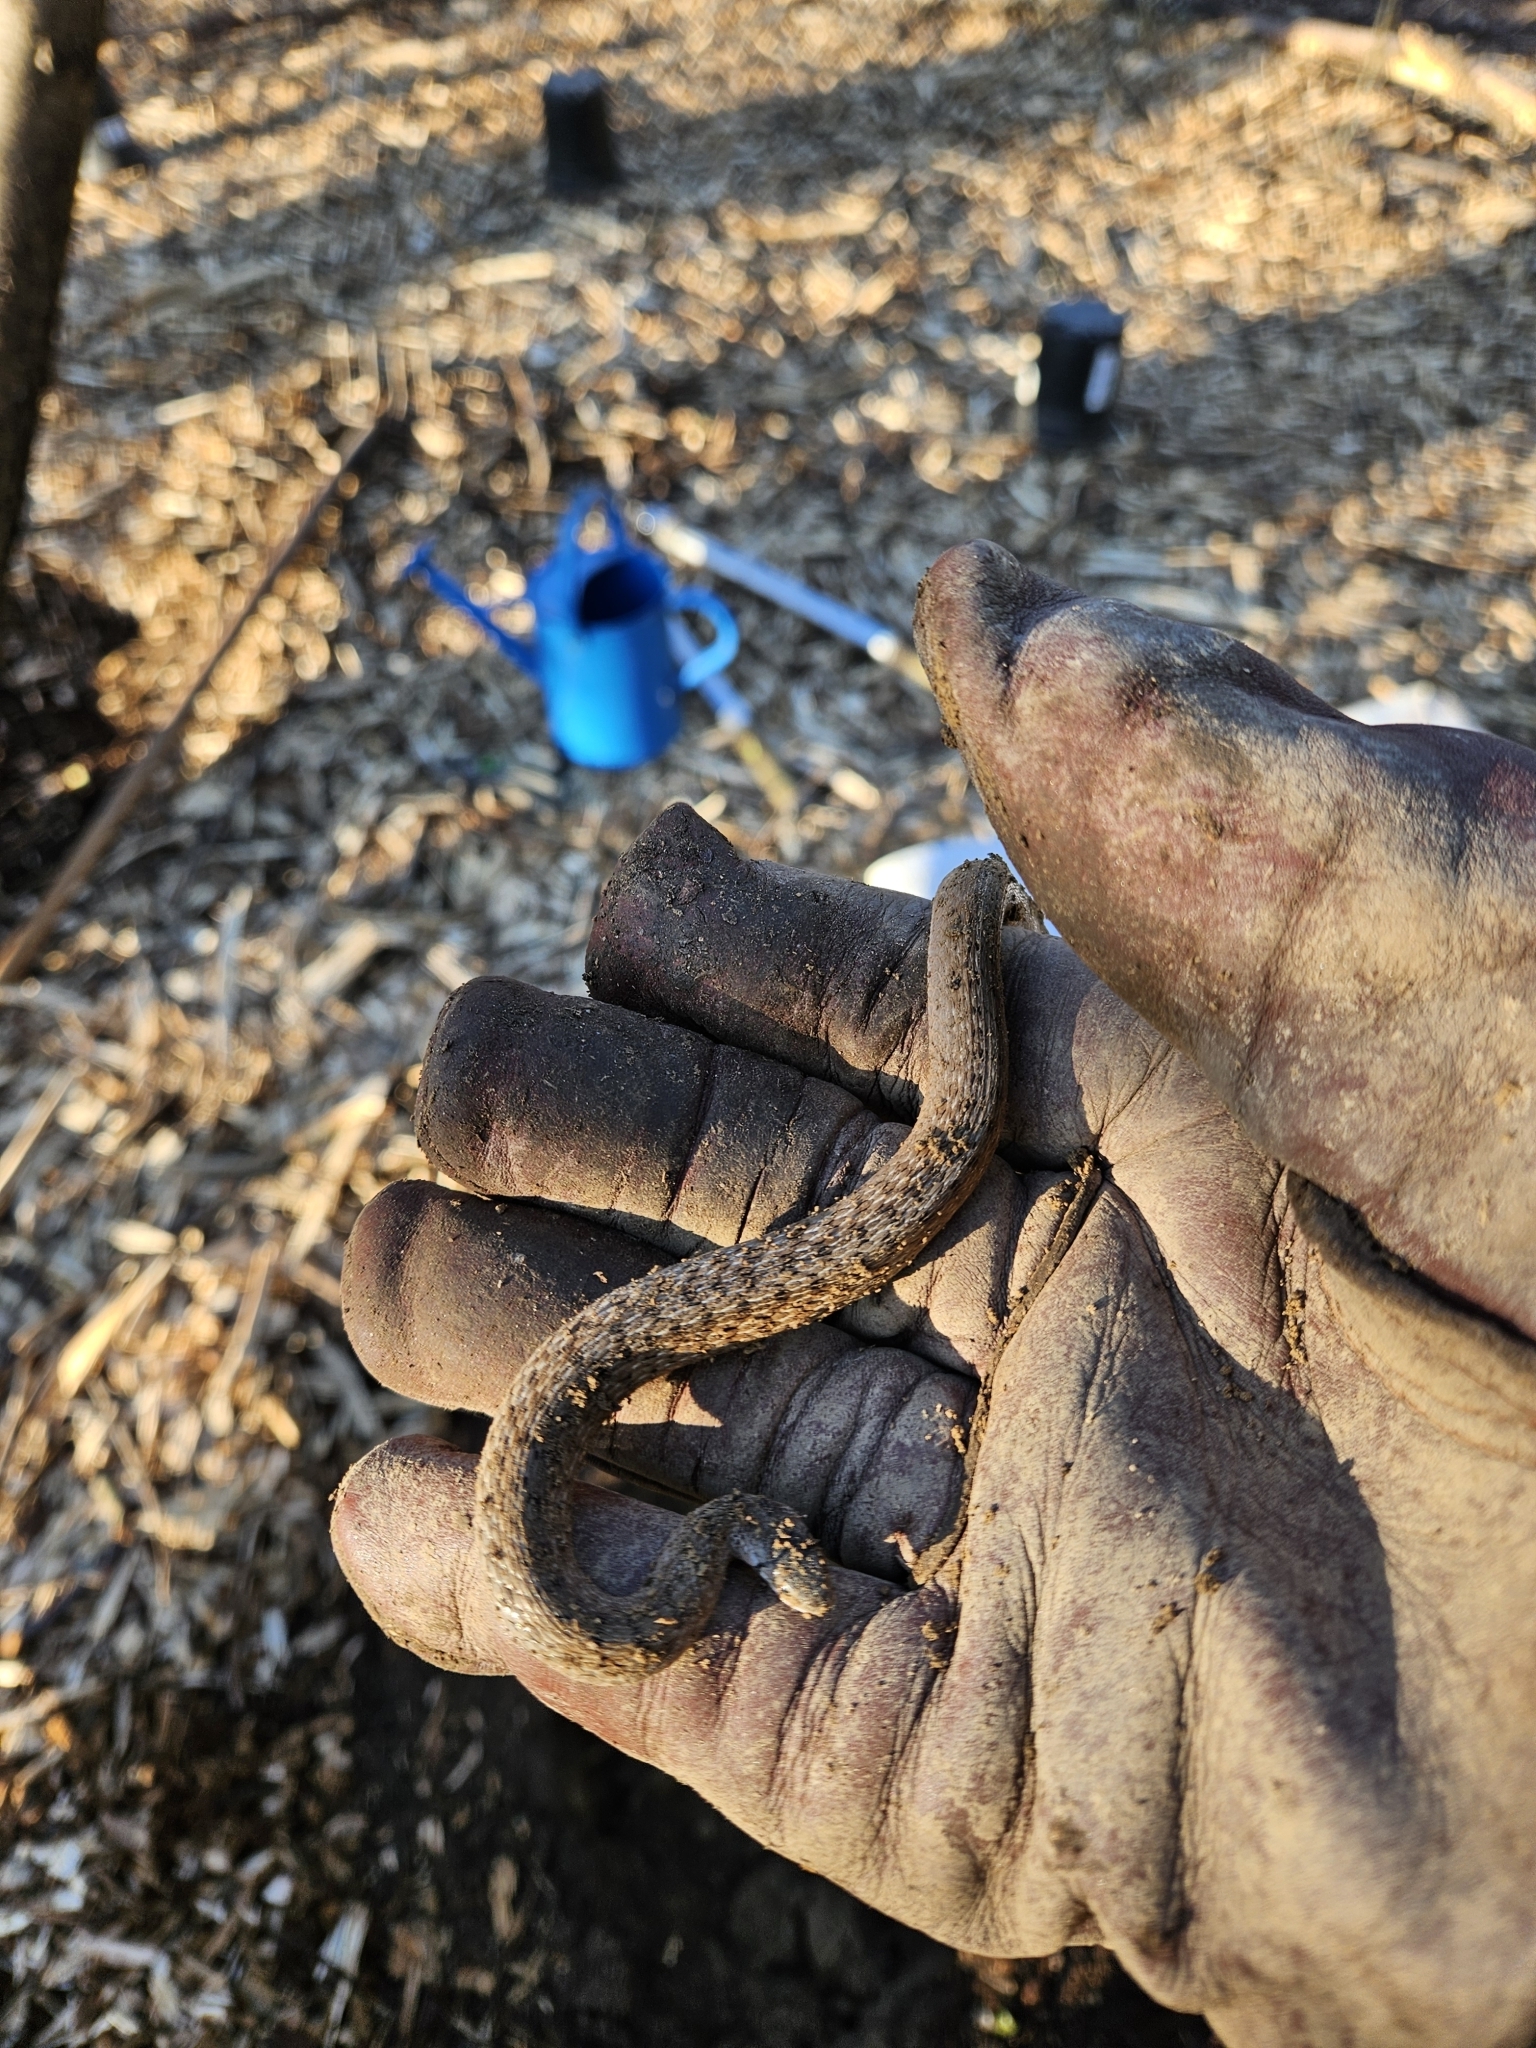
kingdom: Animalia
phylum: Chordata
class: Squamata
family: Colubridae
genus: Storeria
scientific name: Storeria dekayi
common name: (dekay’s) brown snake
